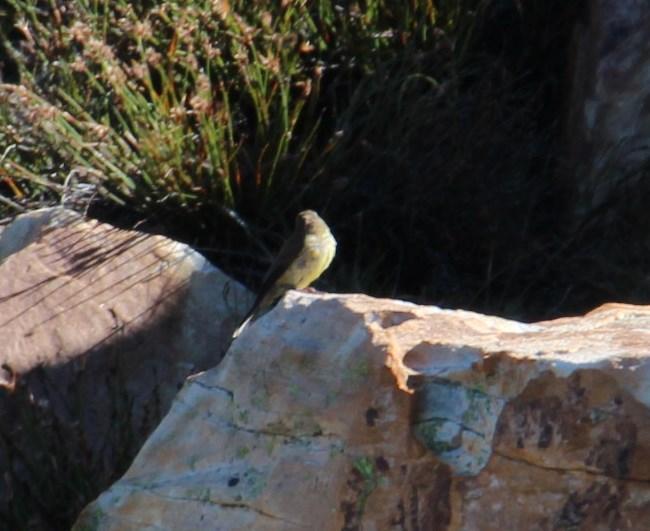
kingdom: Animalia
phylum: Chordata
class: Aves
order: Passeriformes
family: Fringillidae
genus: Crithagra
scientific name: Crithagra totta
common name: Cape siskin
